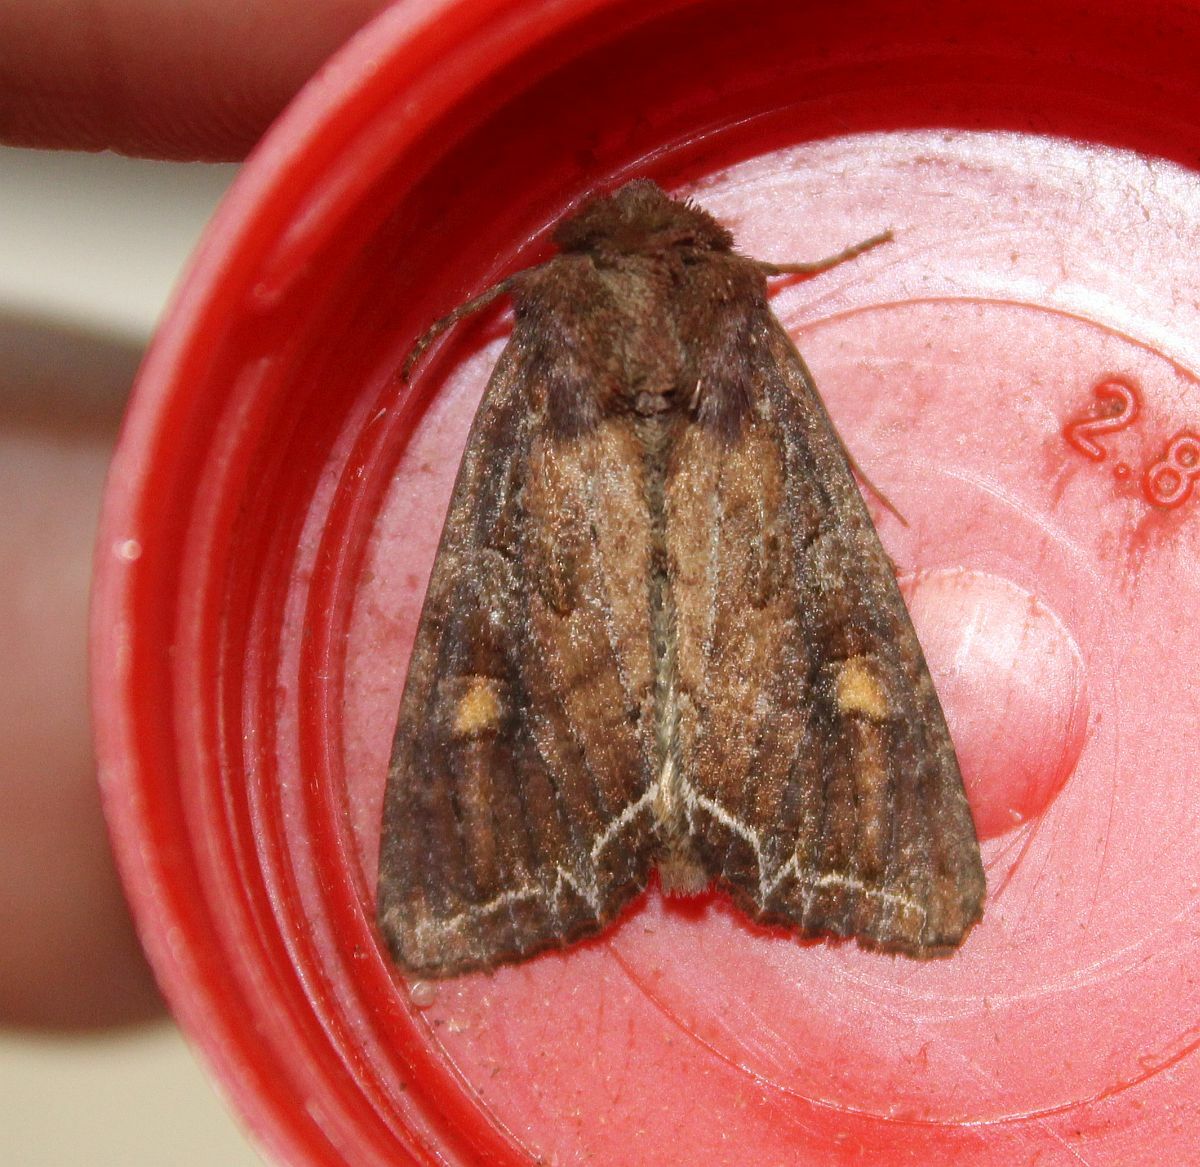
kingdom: Animalia
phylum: Arthropoda
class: Insecta
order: Lepidoptera
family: Noctuidae
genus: Lacanobia
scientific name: Lacanobia oleracea
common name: Bright-line brown-eye
